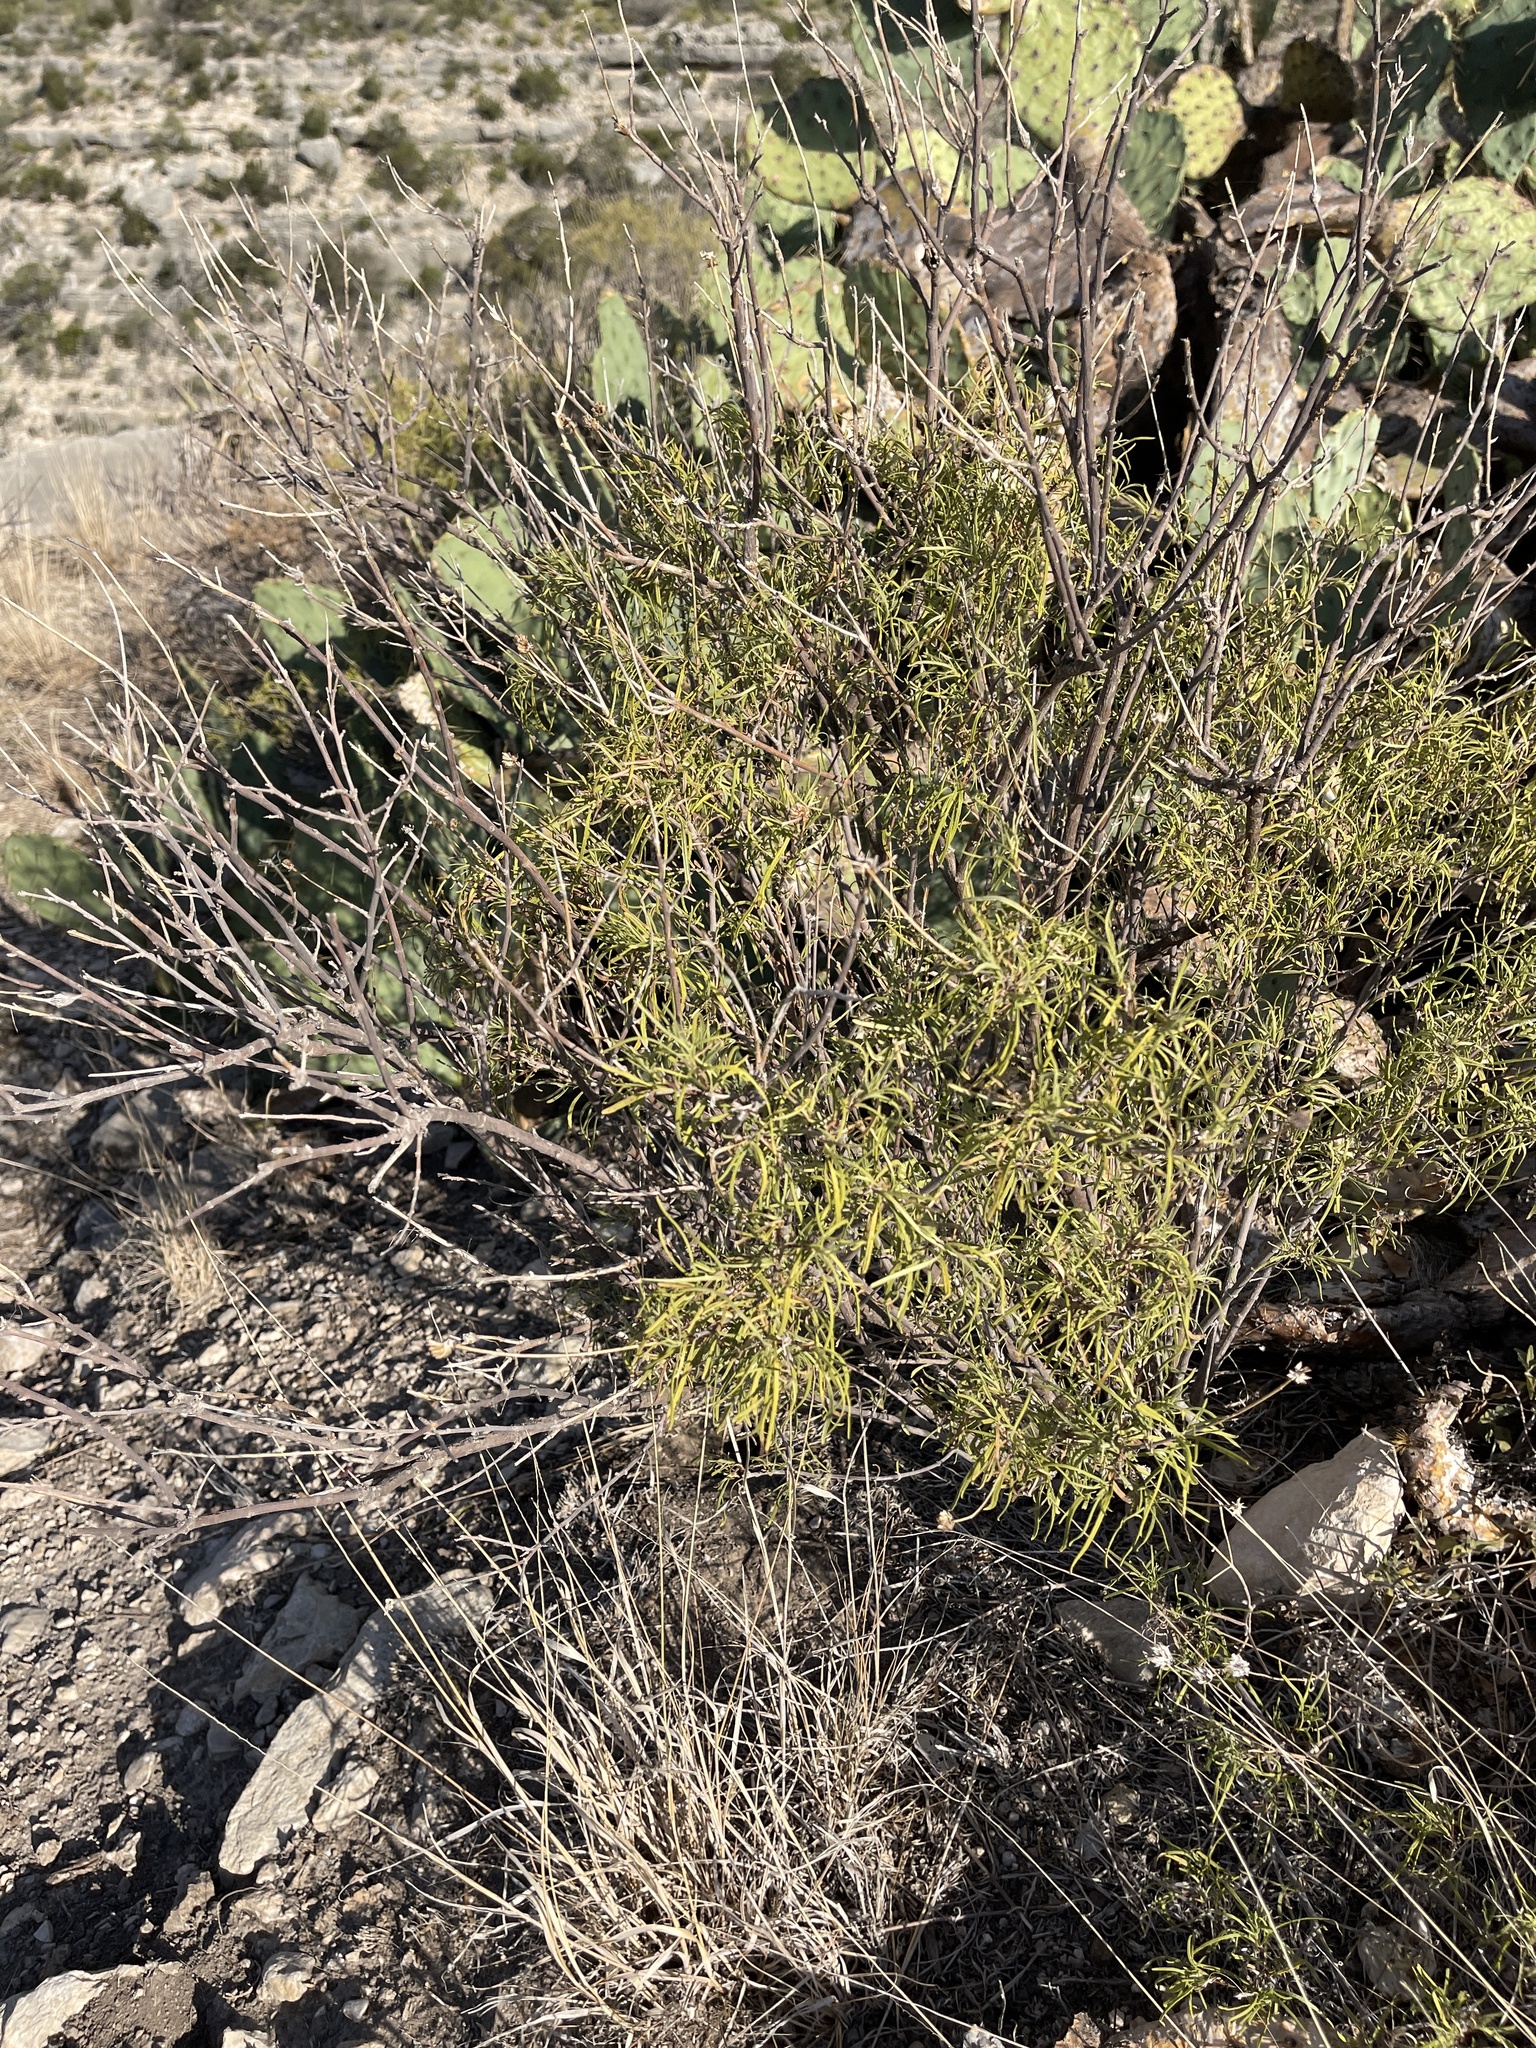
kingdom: Plantae
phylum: Tracheophyta
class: Magnoliopsida
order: Asterales
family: Asteraceae
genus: Sidneya
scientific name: Sidneya tenuifolia
